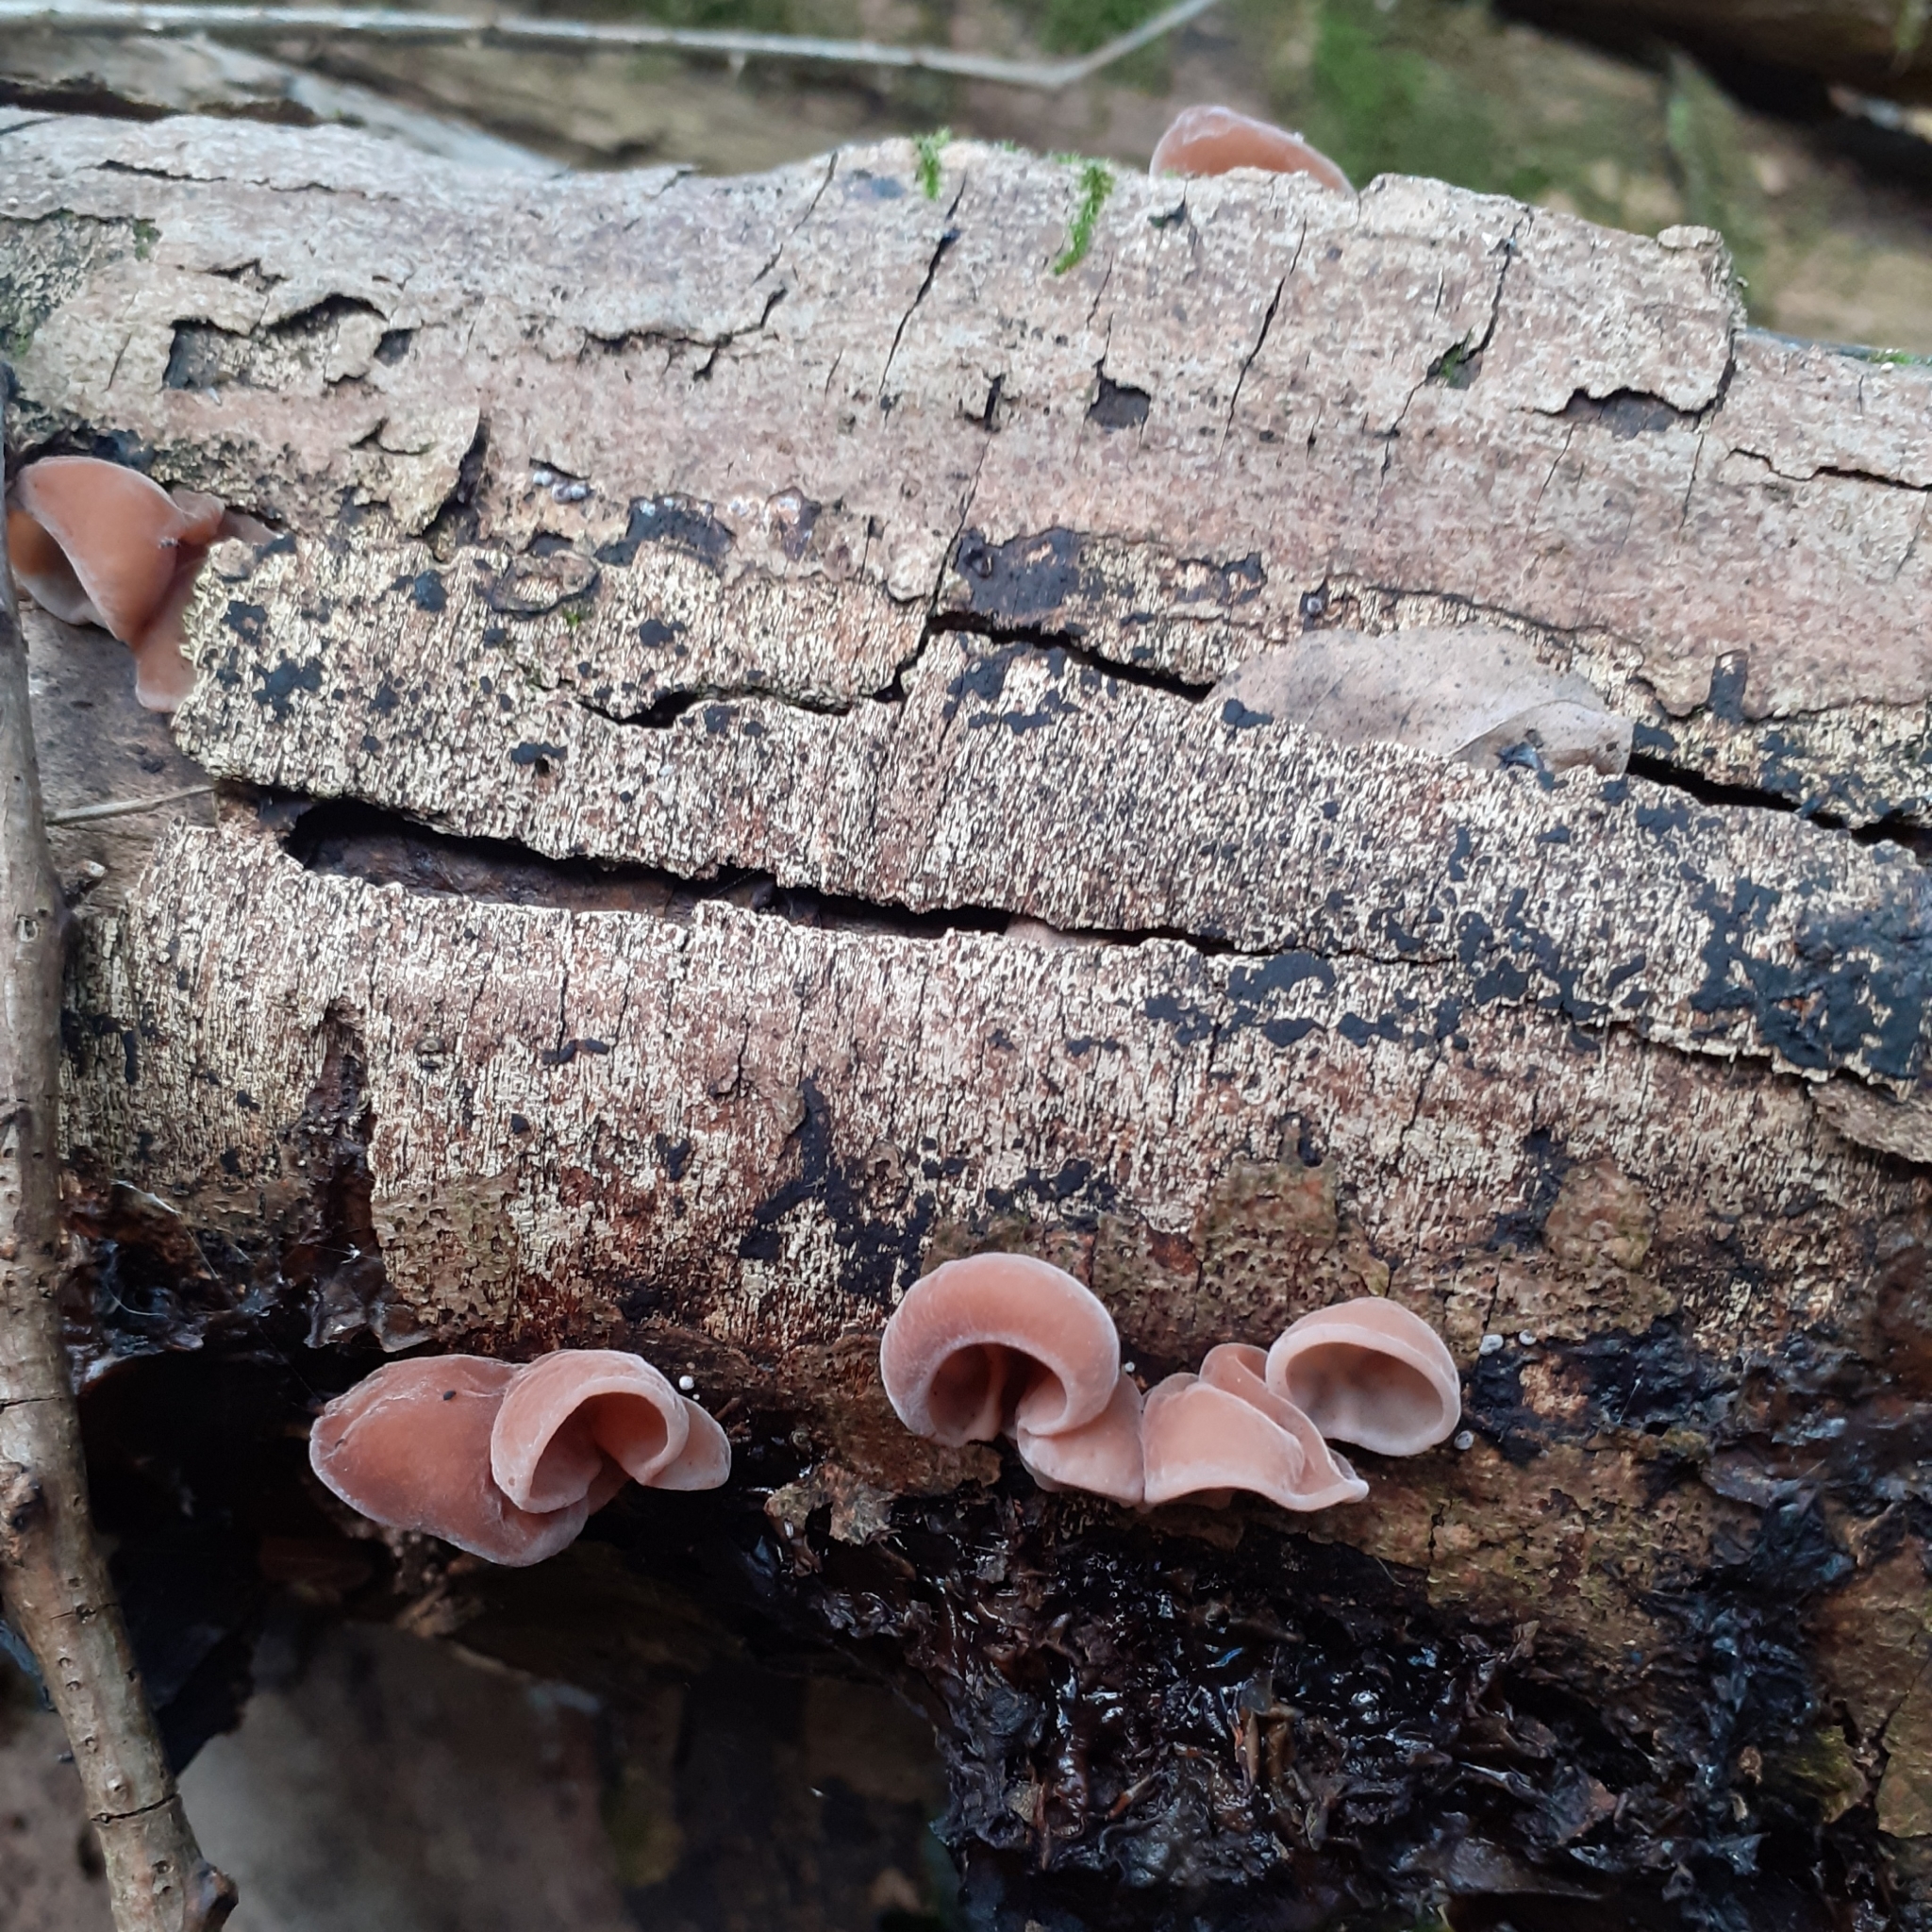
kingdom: Fungi
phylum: Basidiomycota
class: Agaricomycetes
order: Auriculariales
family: Auriculariaceae
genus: Auricularia
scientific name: Auricularia auricula-judae
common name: Jelly ear
